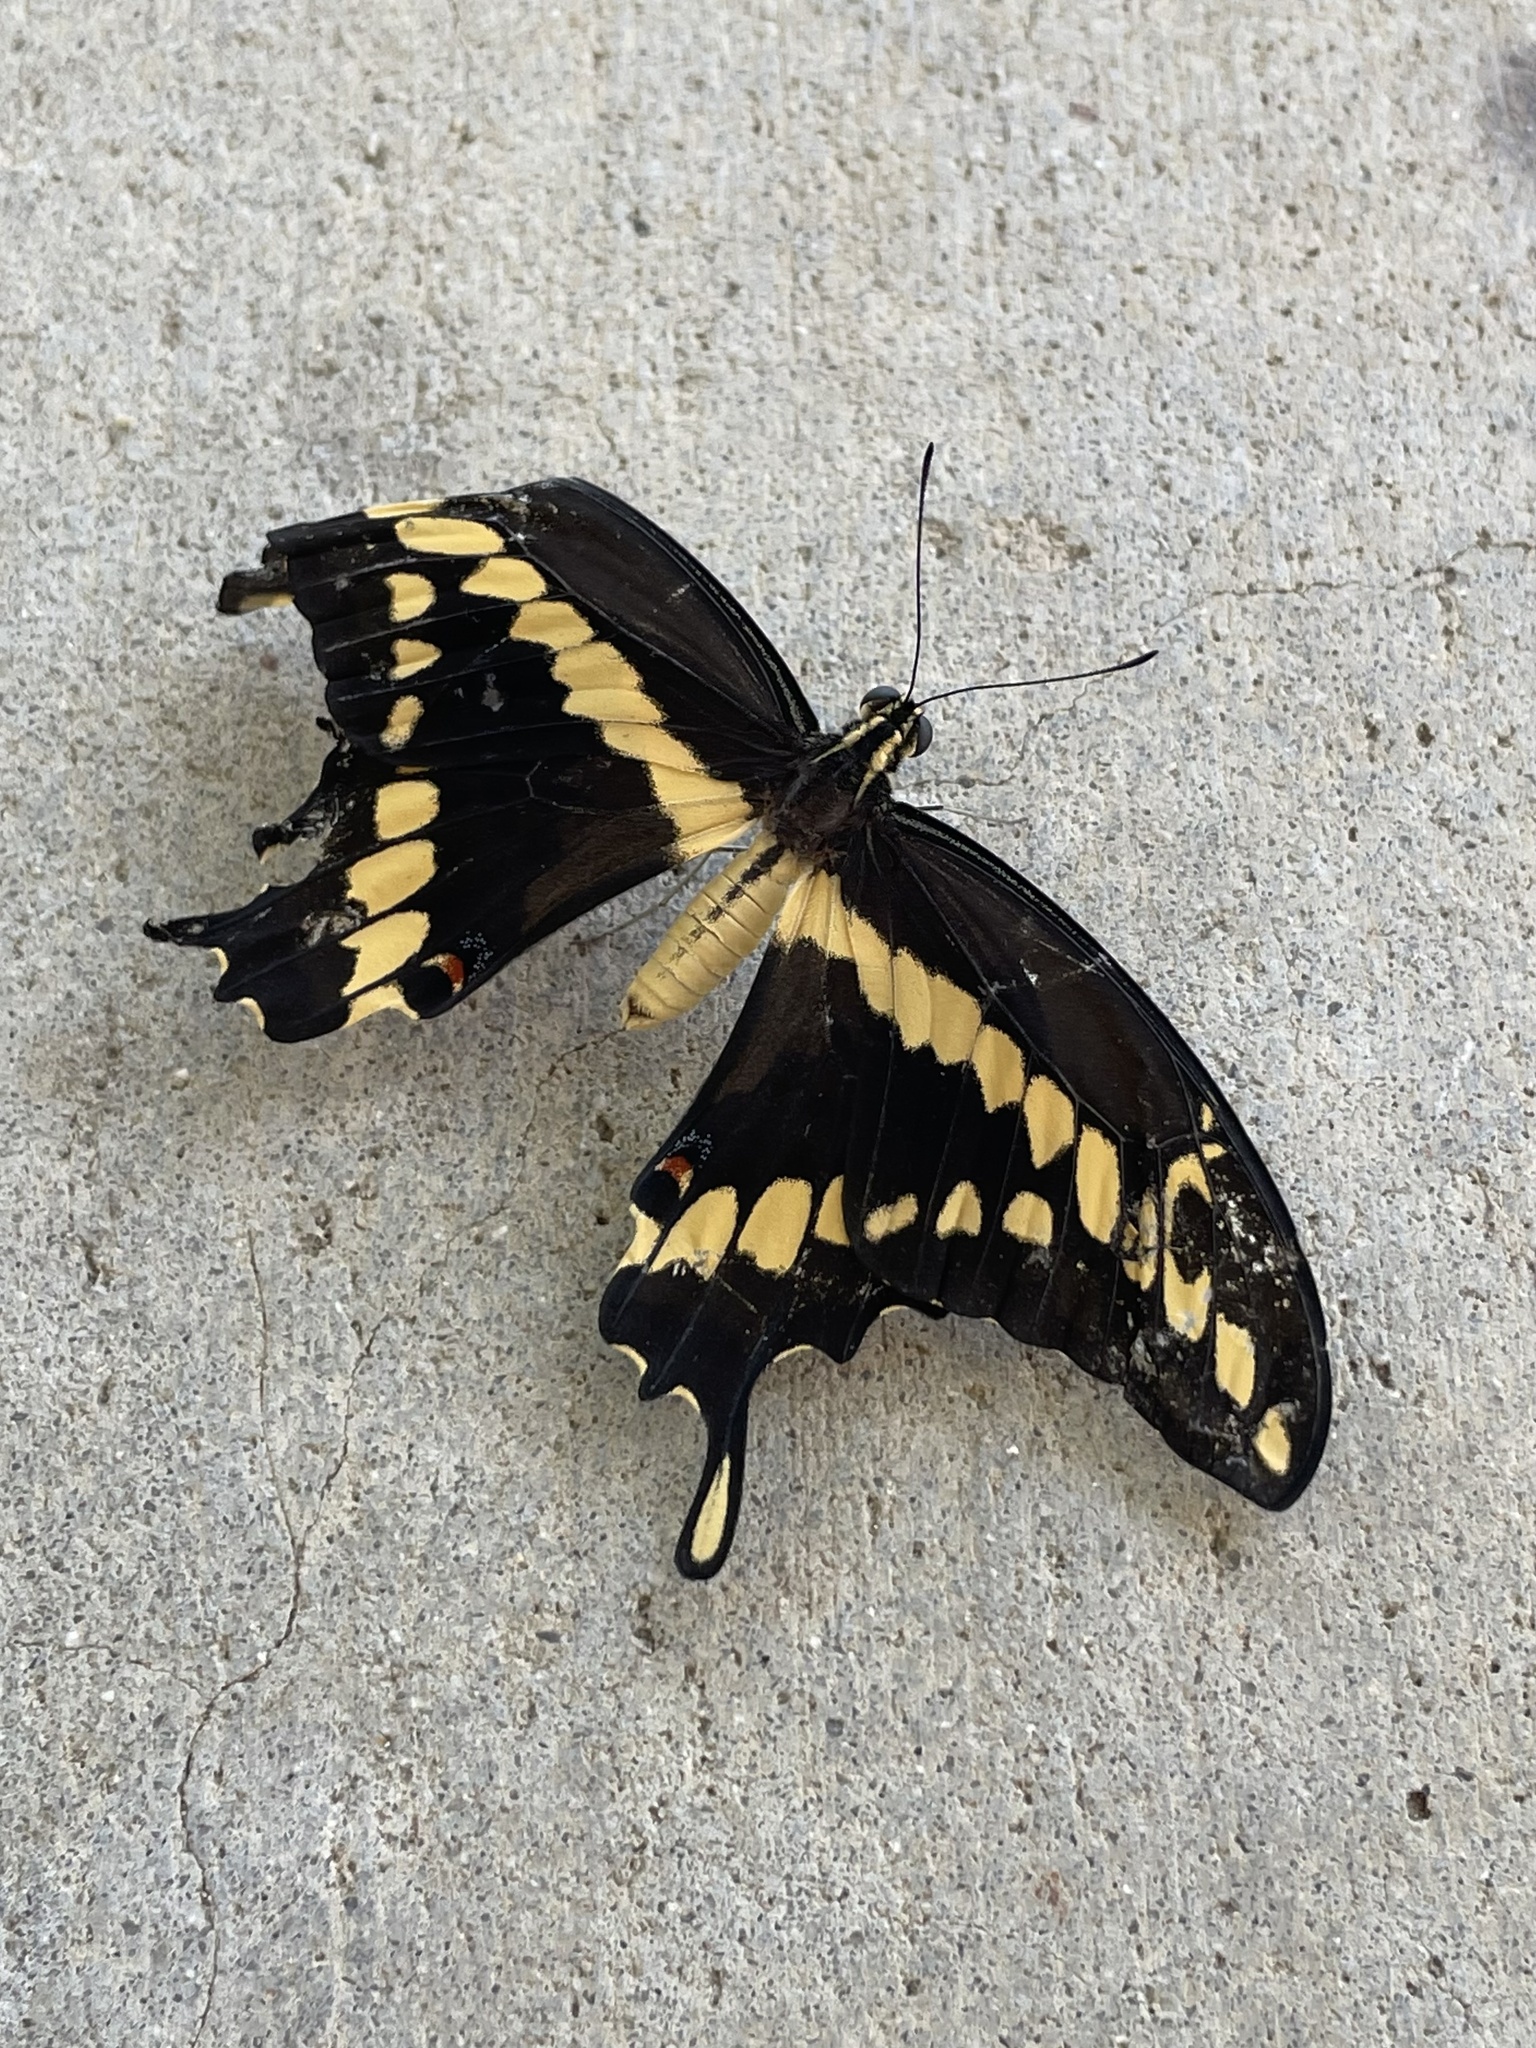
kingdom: Animalia
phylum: Arthropoda
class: Insecta
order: Lepidoptera
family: Papilionidae
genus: Papilio
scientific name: Papilio rumiko
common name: Western giant swallowtail
